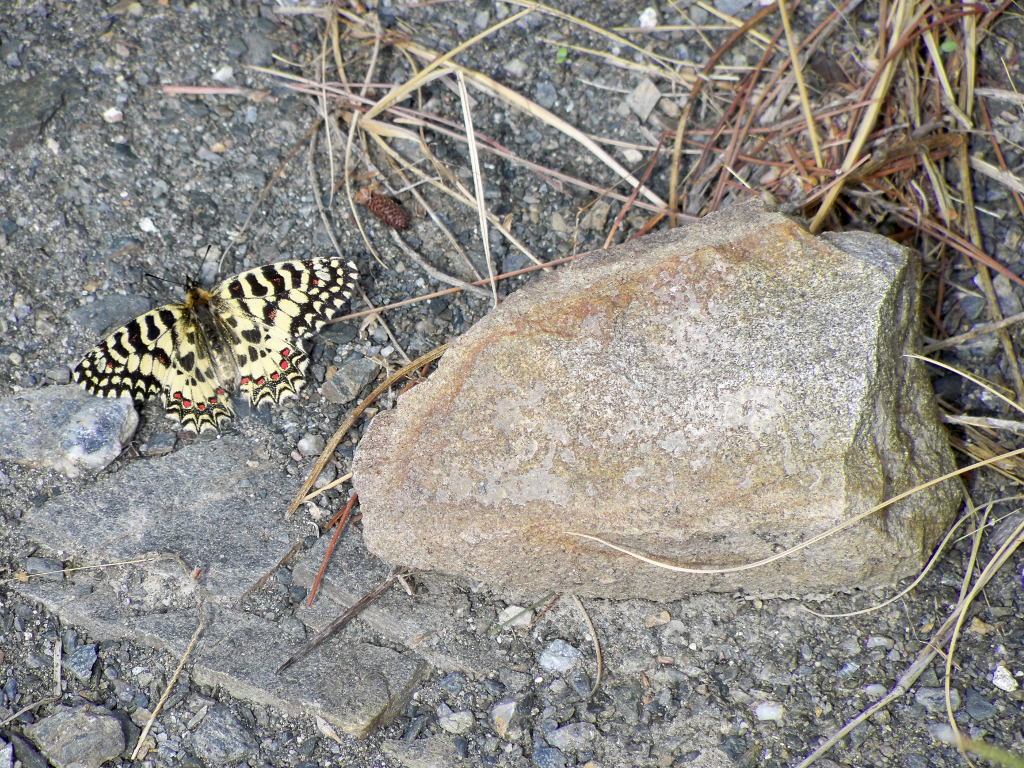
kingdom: Animalia
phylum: Arthropoda
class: Insecta
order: Lepidoptera
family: Papilionidae
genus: Zerynthia
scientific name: Zerynthia rumina
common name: Spanish festoon
